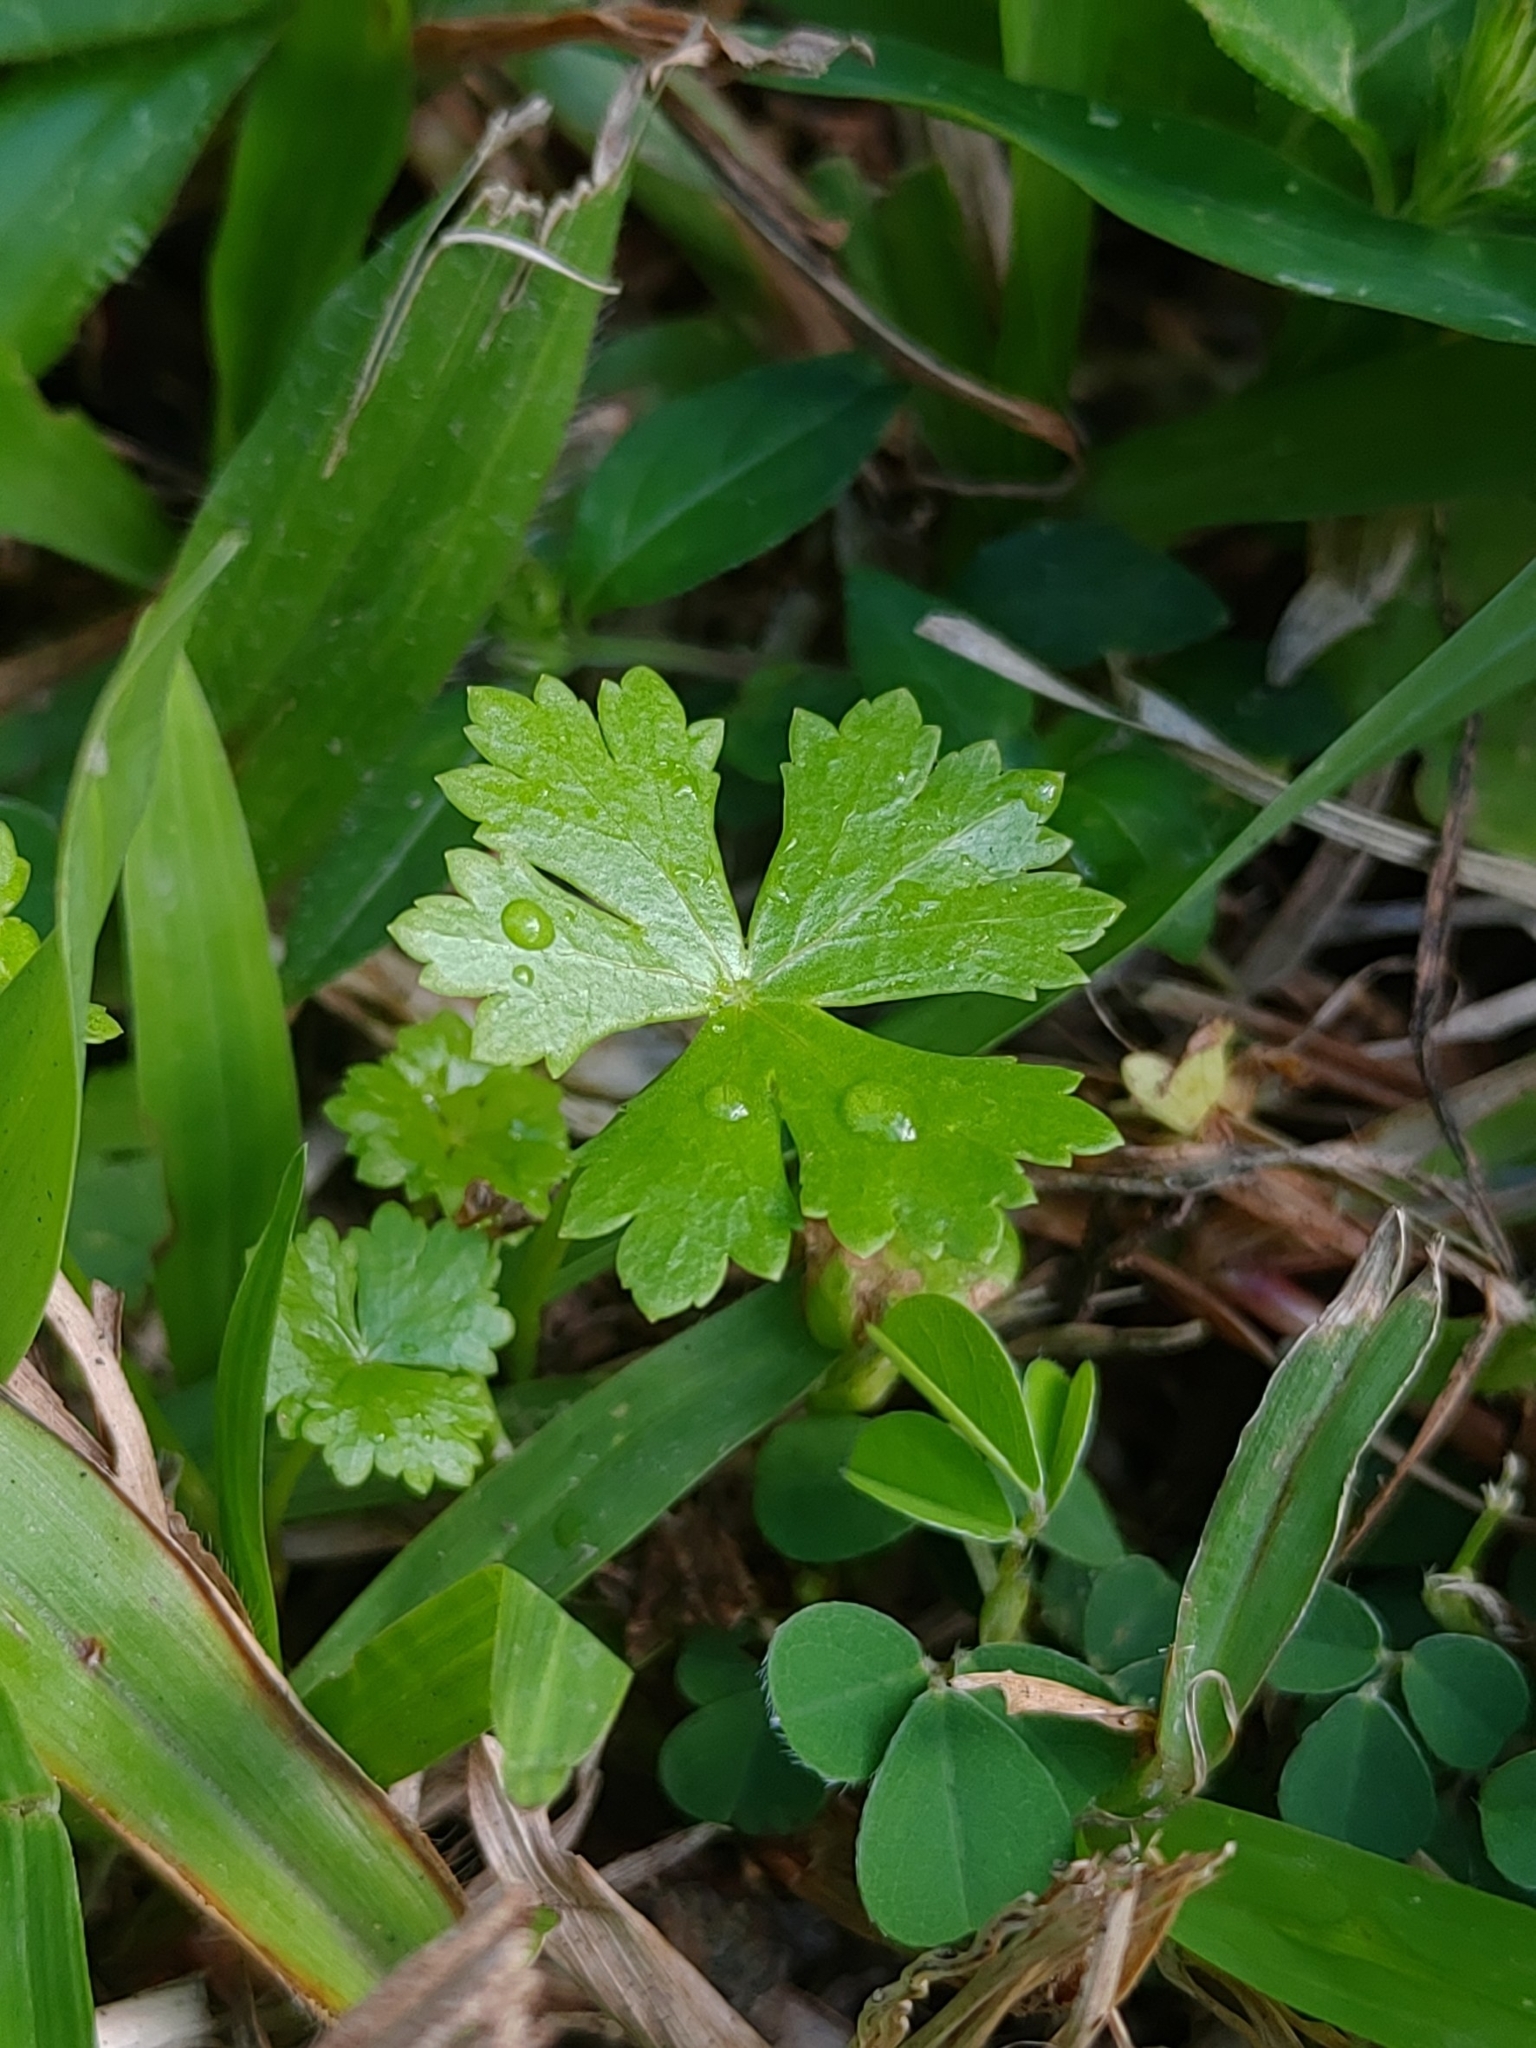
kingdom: Plantae
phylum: Tracheophyta
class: Magnoliopsida
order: Apiales
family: Araliaceae
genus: Hydrocotyle
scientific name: Hydrocotyle batrachium
